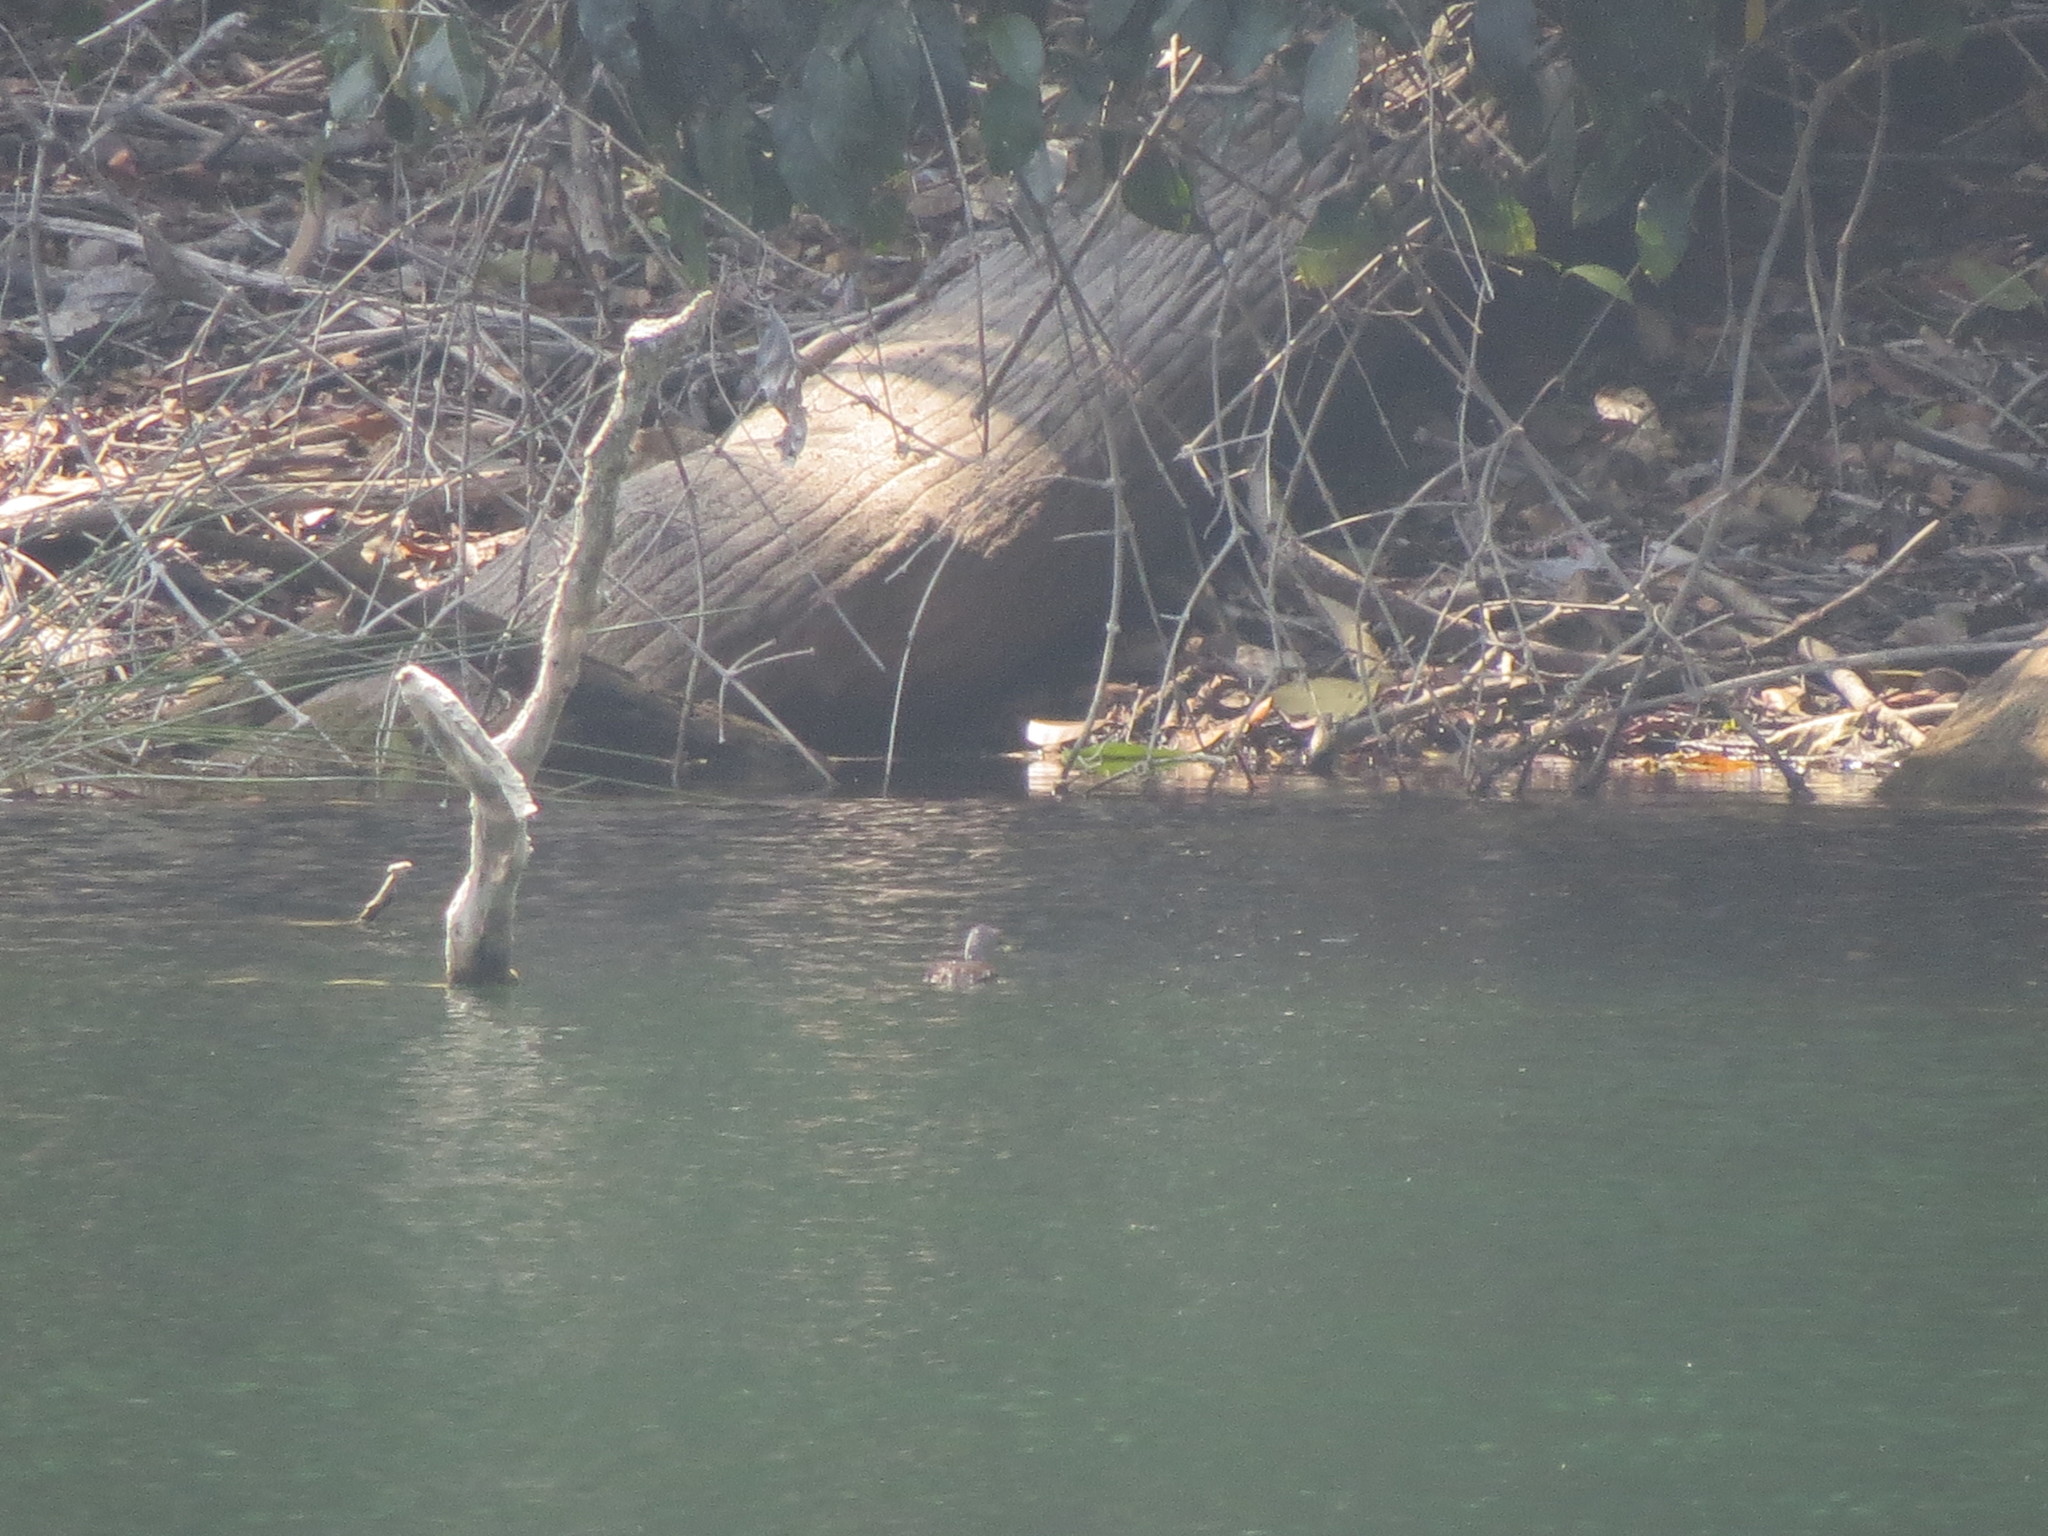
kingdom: Animalia
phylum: Chordata
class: Aves
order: Podicipediformes
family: Podicipedidae
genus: Tachybaptus
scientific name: Tachybaptus dominicus
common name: Least grebe
